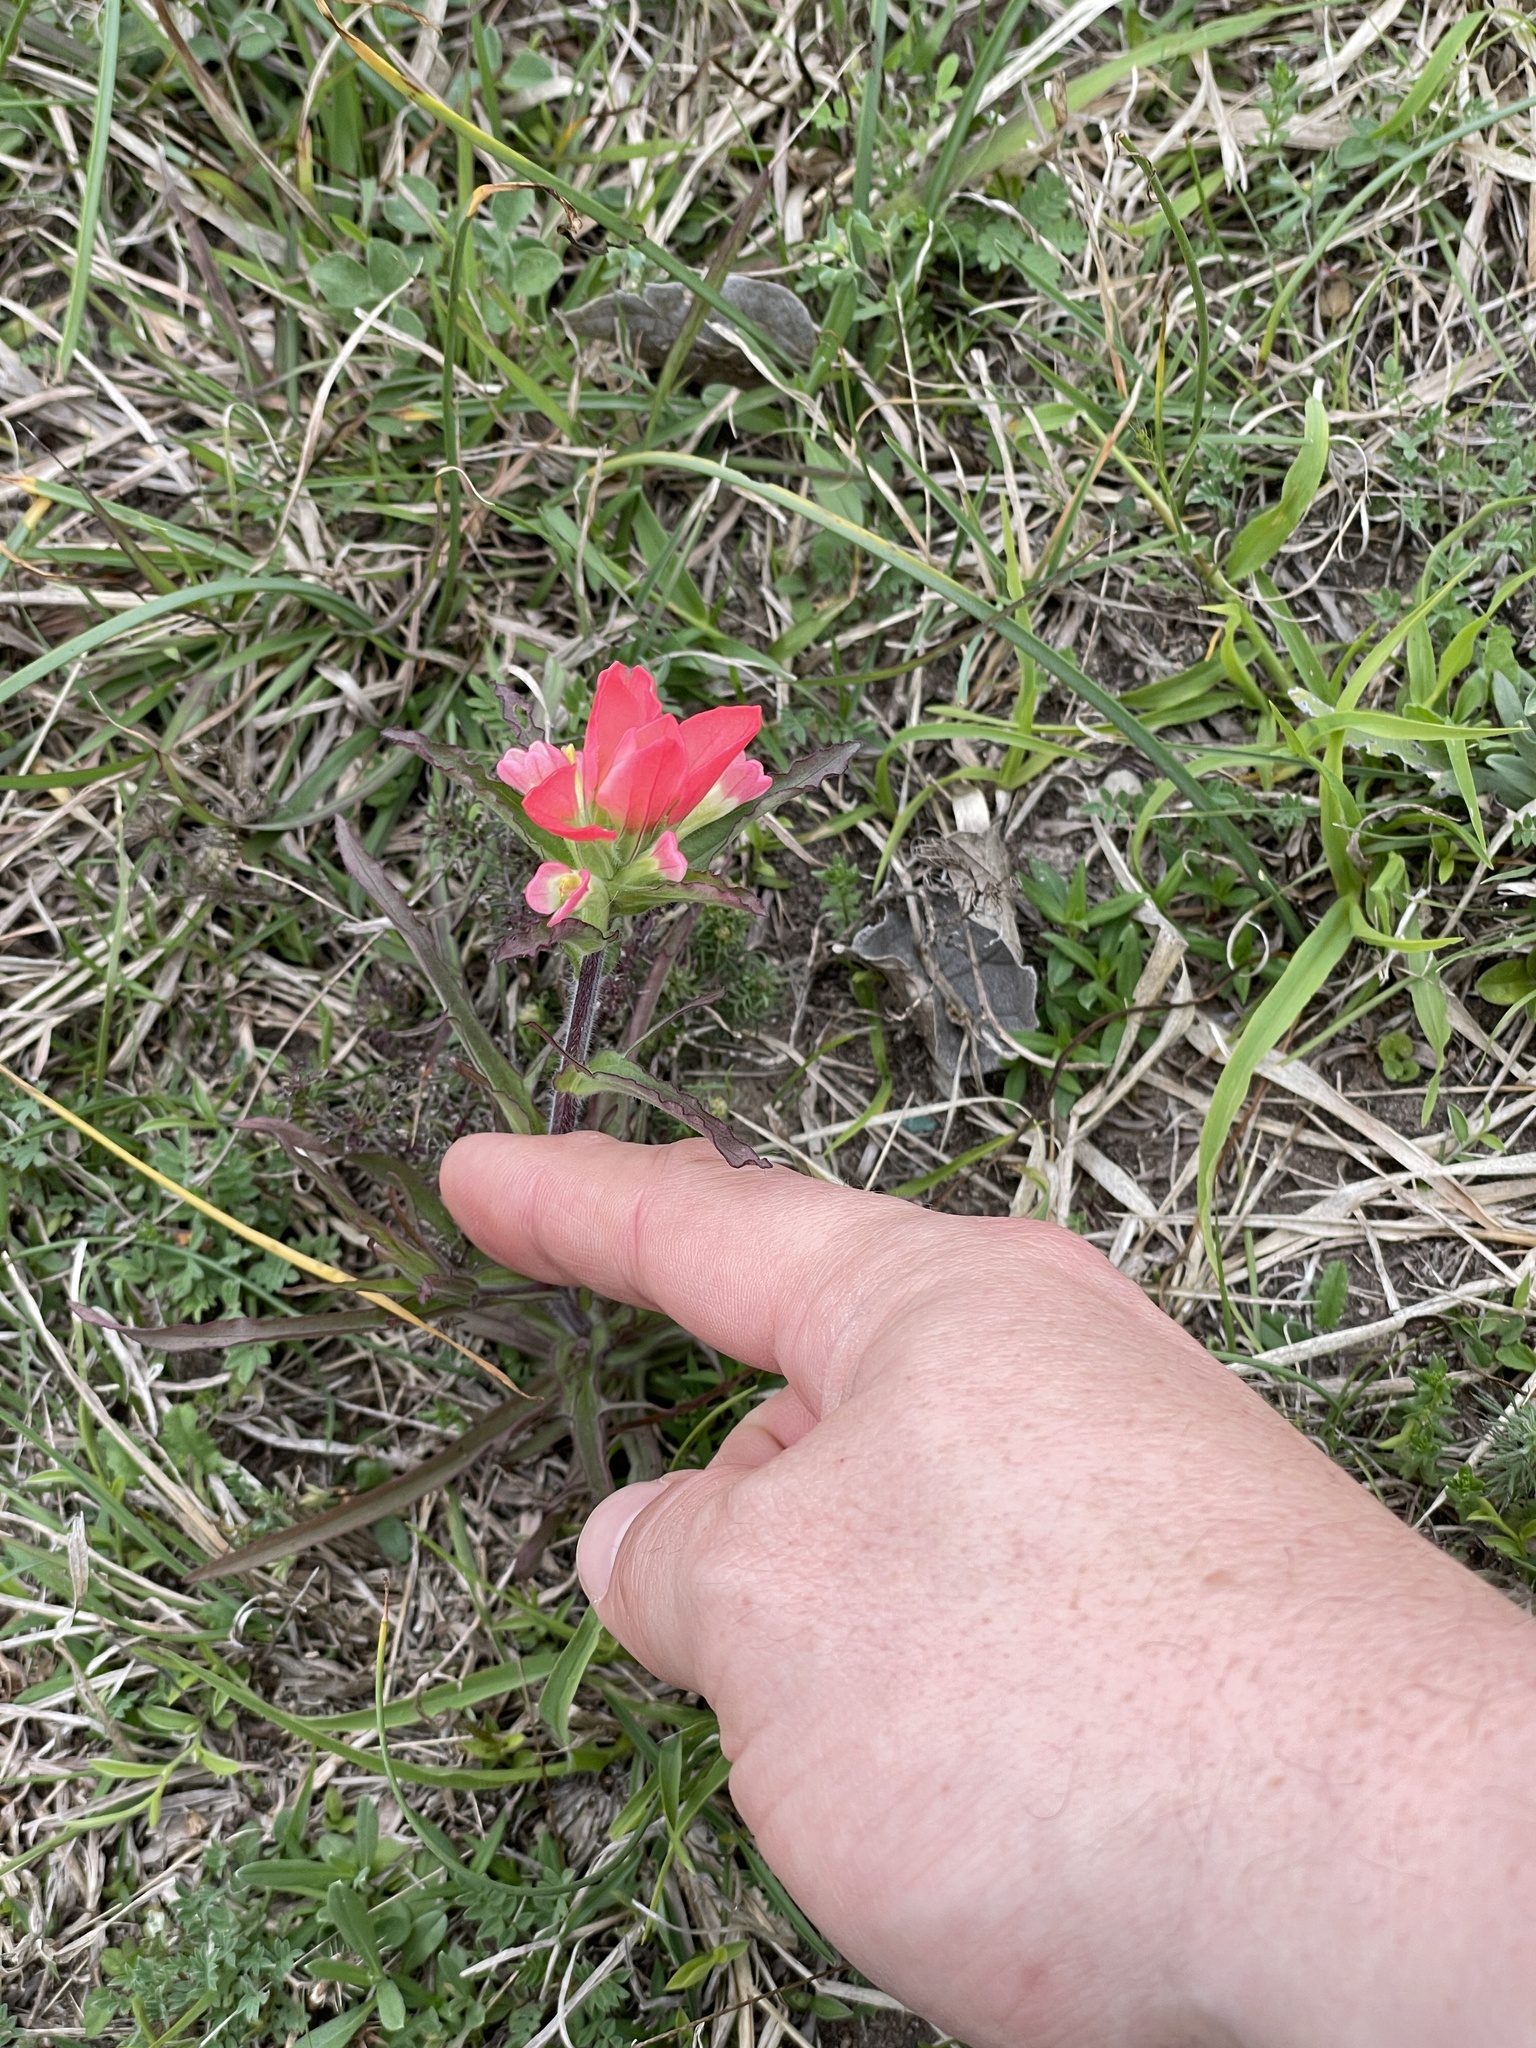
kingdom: Plantae
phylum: Tracheophyta
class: Magnoliopsida
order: Lamiales
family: Orobanchaceae
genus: Castilleja
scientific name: Castilleja indivisa
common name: Texas paintbrush
